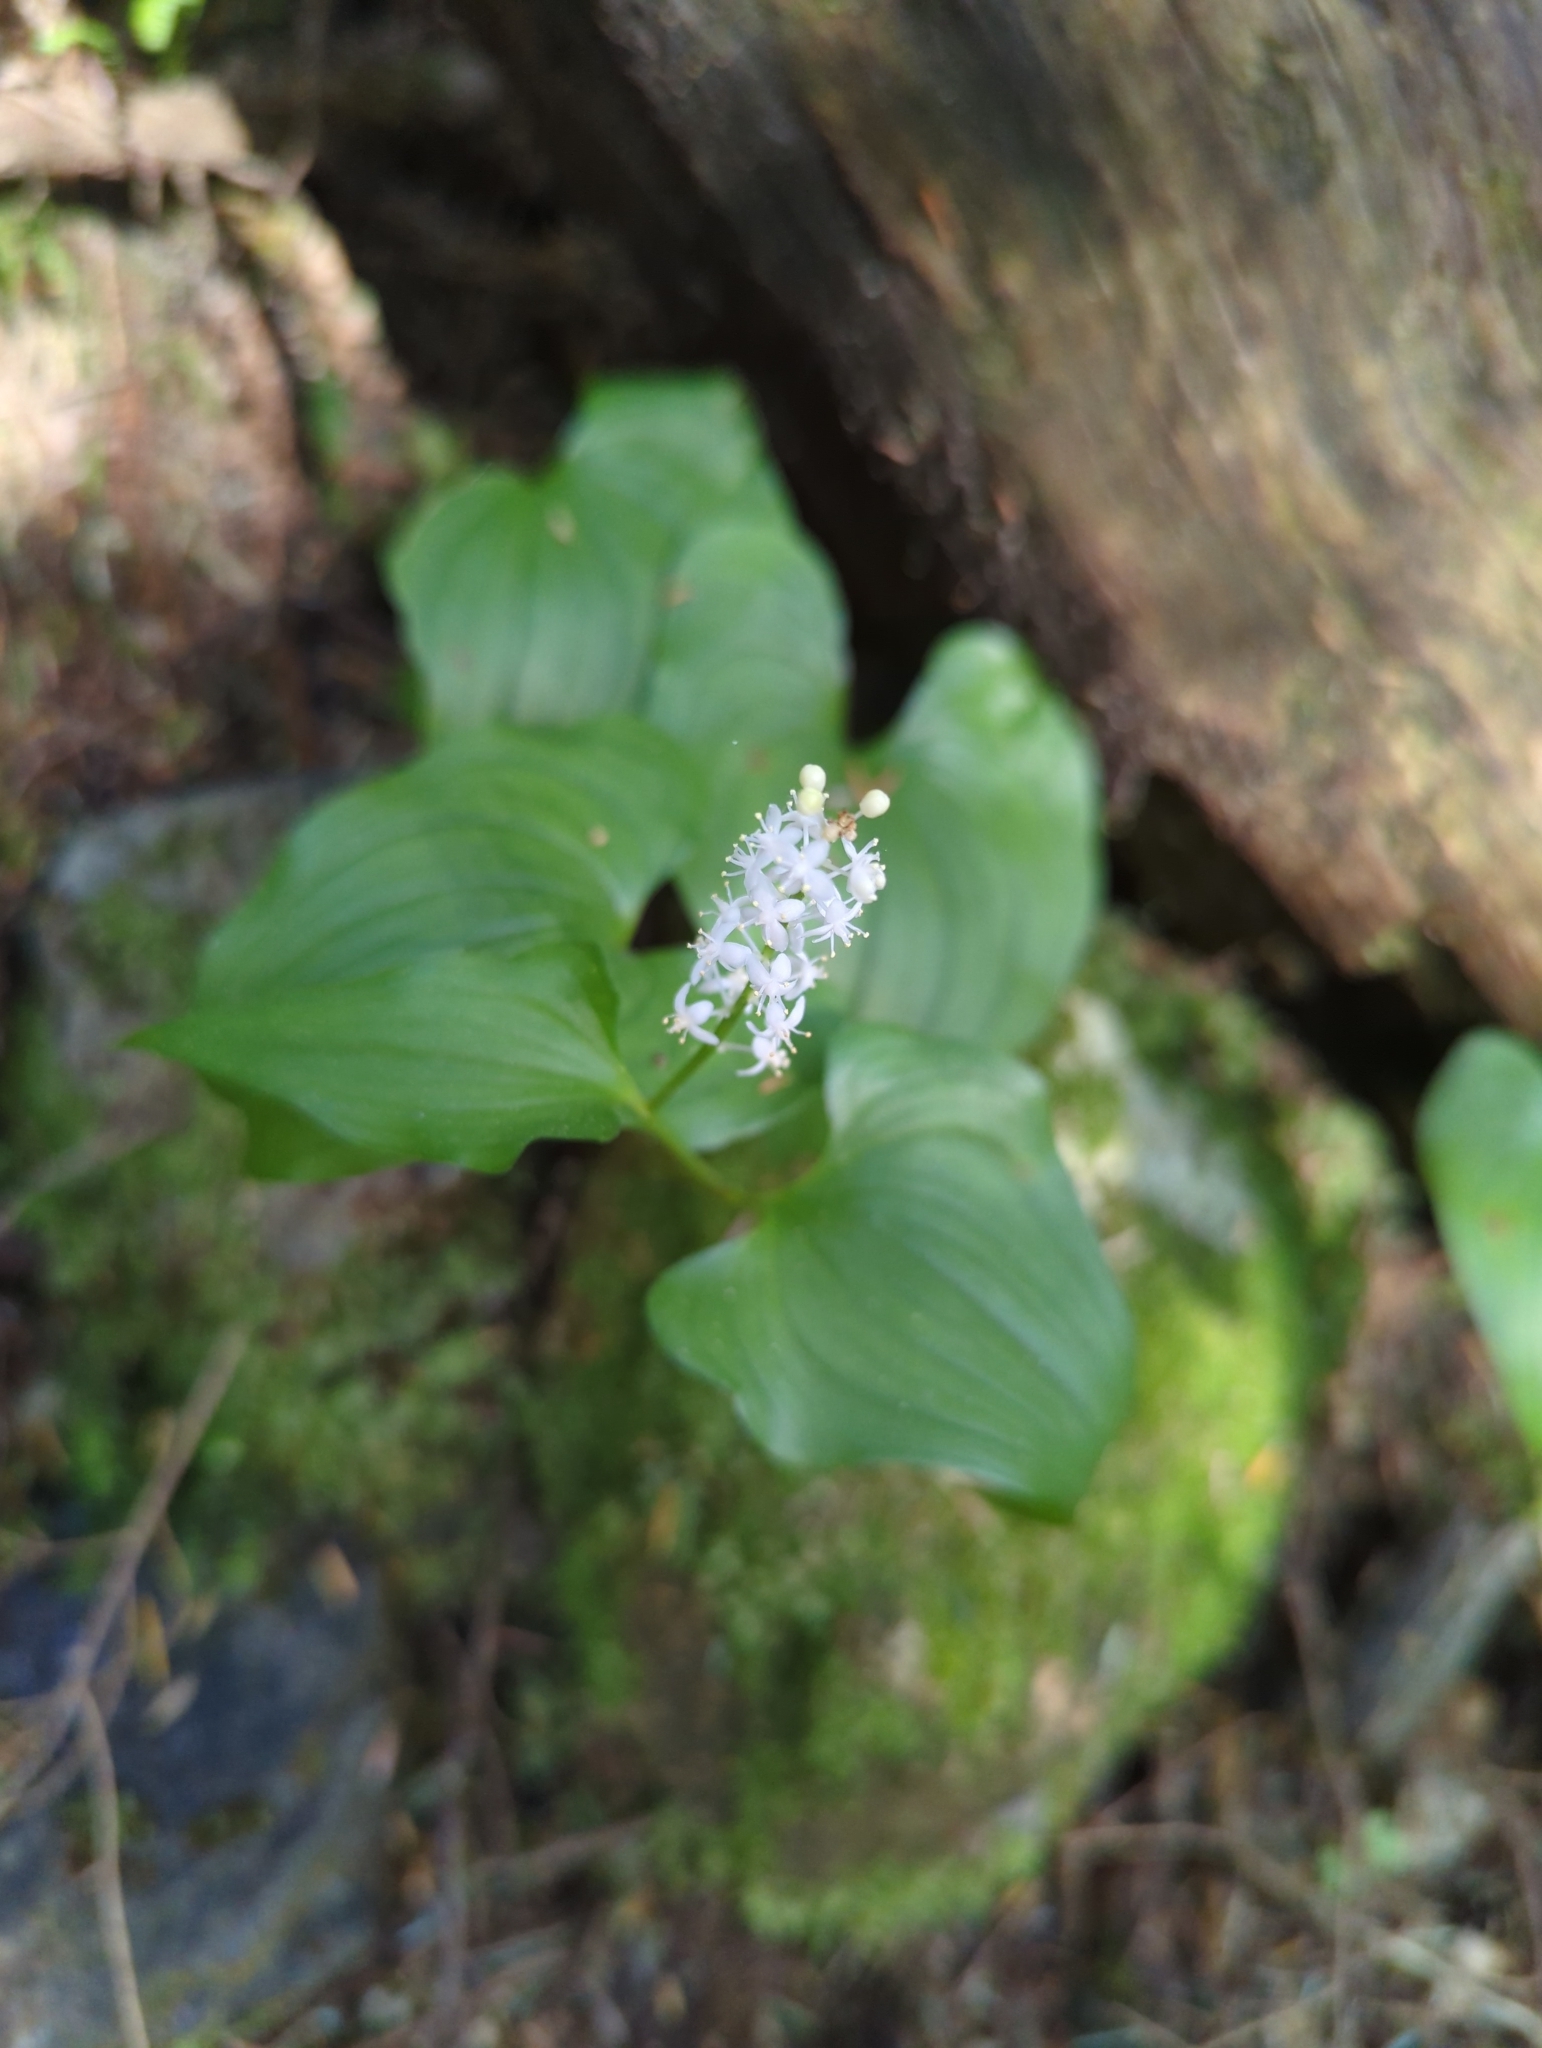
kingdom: Plantae
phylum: Tracheophyta
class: Liliopsida
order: Asparagales
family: Asparagaceae
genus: Maianthemum
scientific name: Maianthemum dilatatum
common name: False lily-of-the-valley
